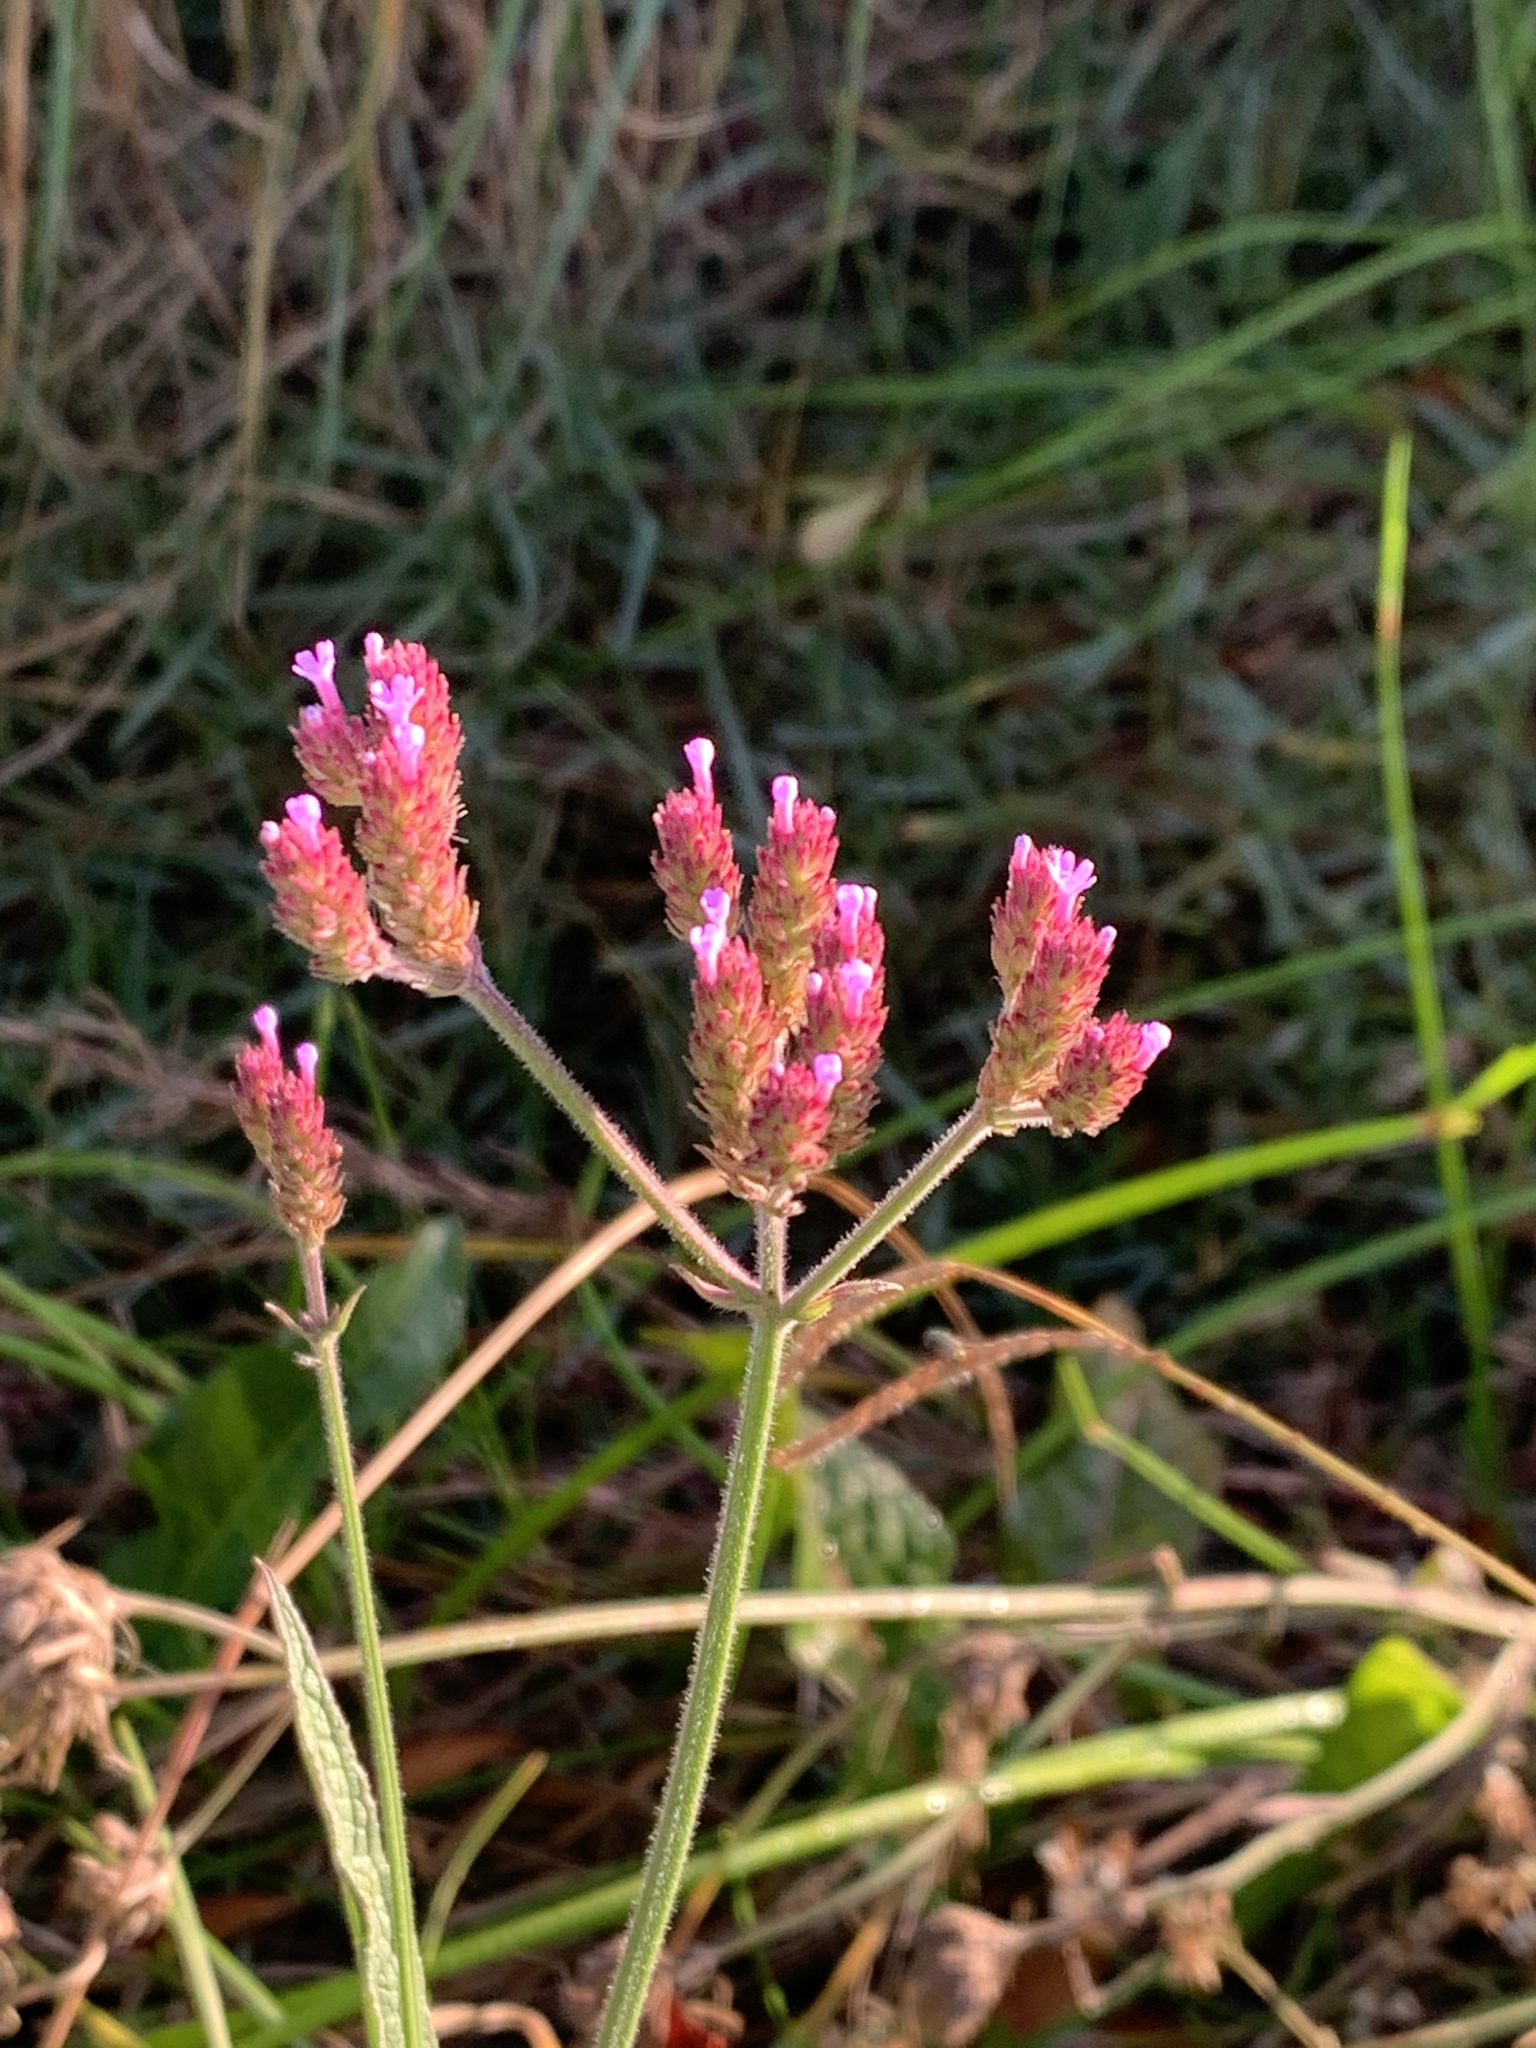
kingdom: Plantae
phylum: Tracheophyta
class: Magnoliopsida
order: Lamiales
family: Verbenaceae
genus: Verbena
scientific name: Verbena bonariensis
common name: Purpletop vervain
